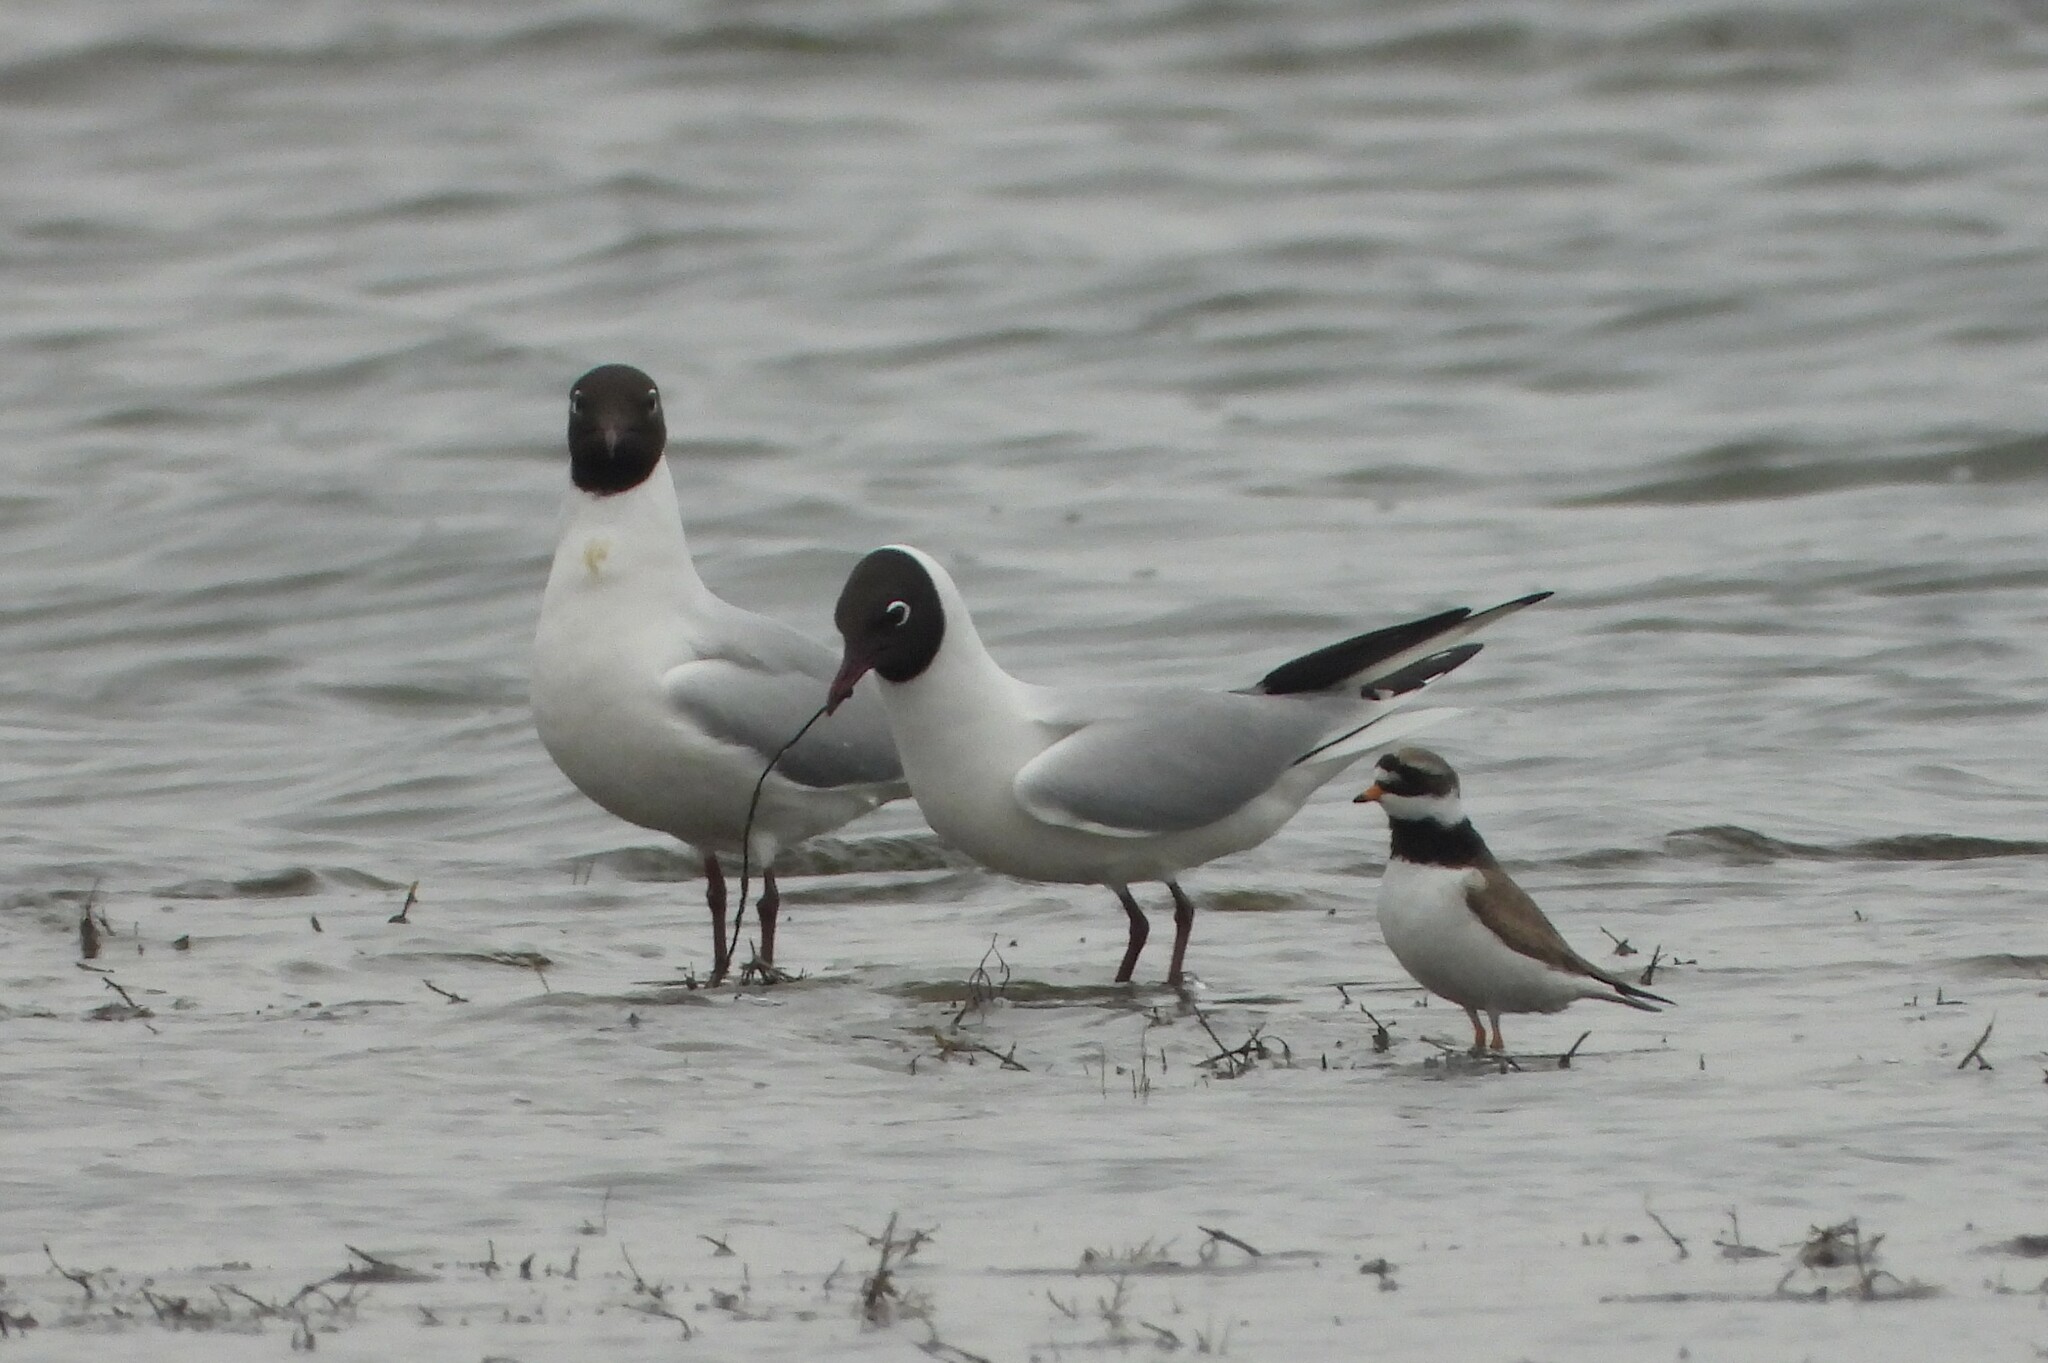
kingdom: Animalia
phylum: Chordata
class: Aves
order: Charadriiformes
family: Laridae
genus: Chroicocephalus
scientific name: Chroicocephalus ridibundus
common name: Black-headed gull
